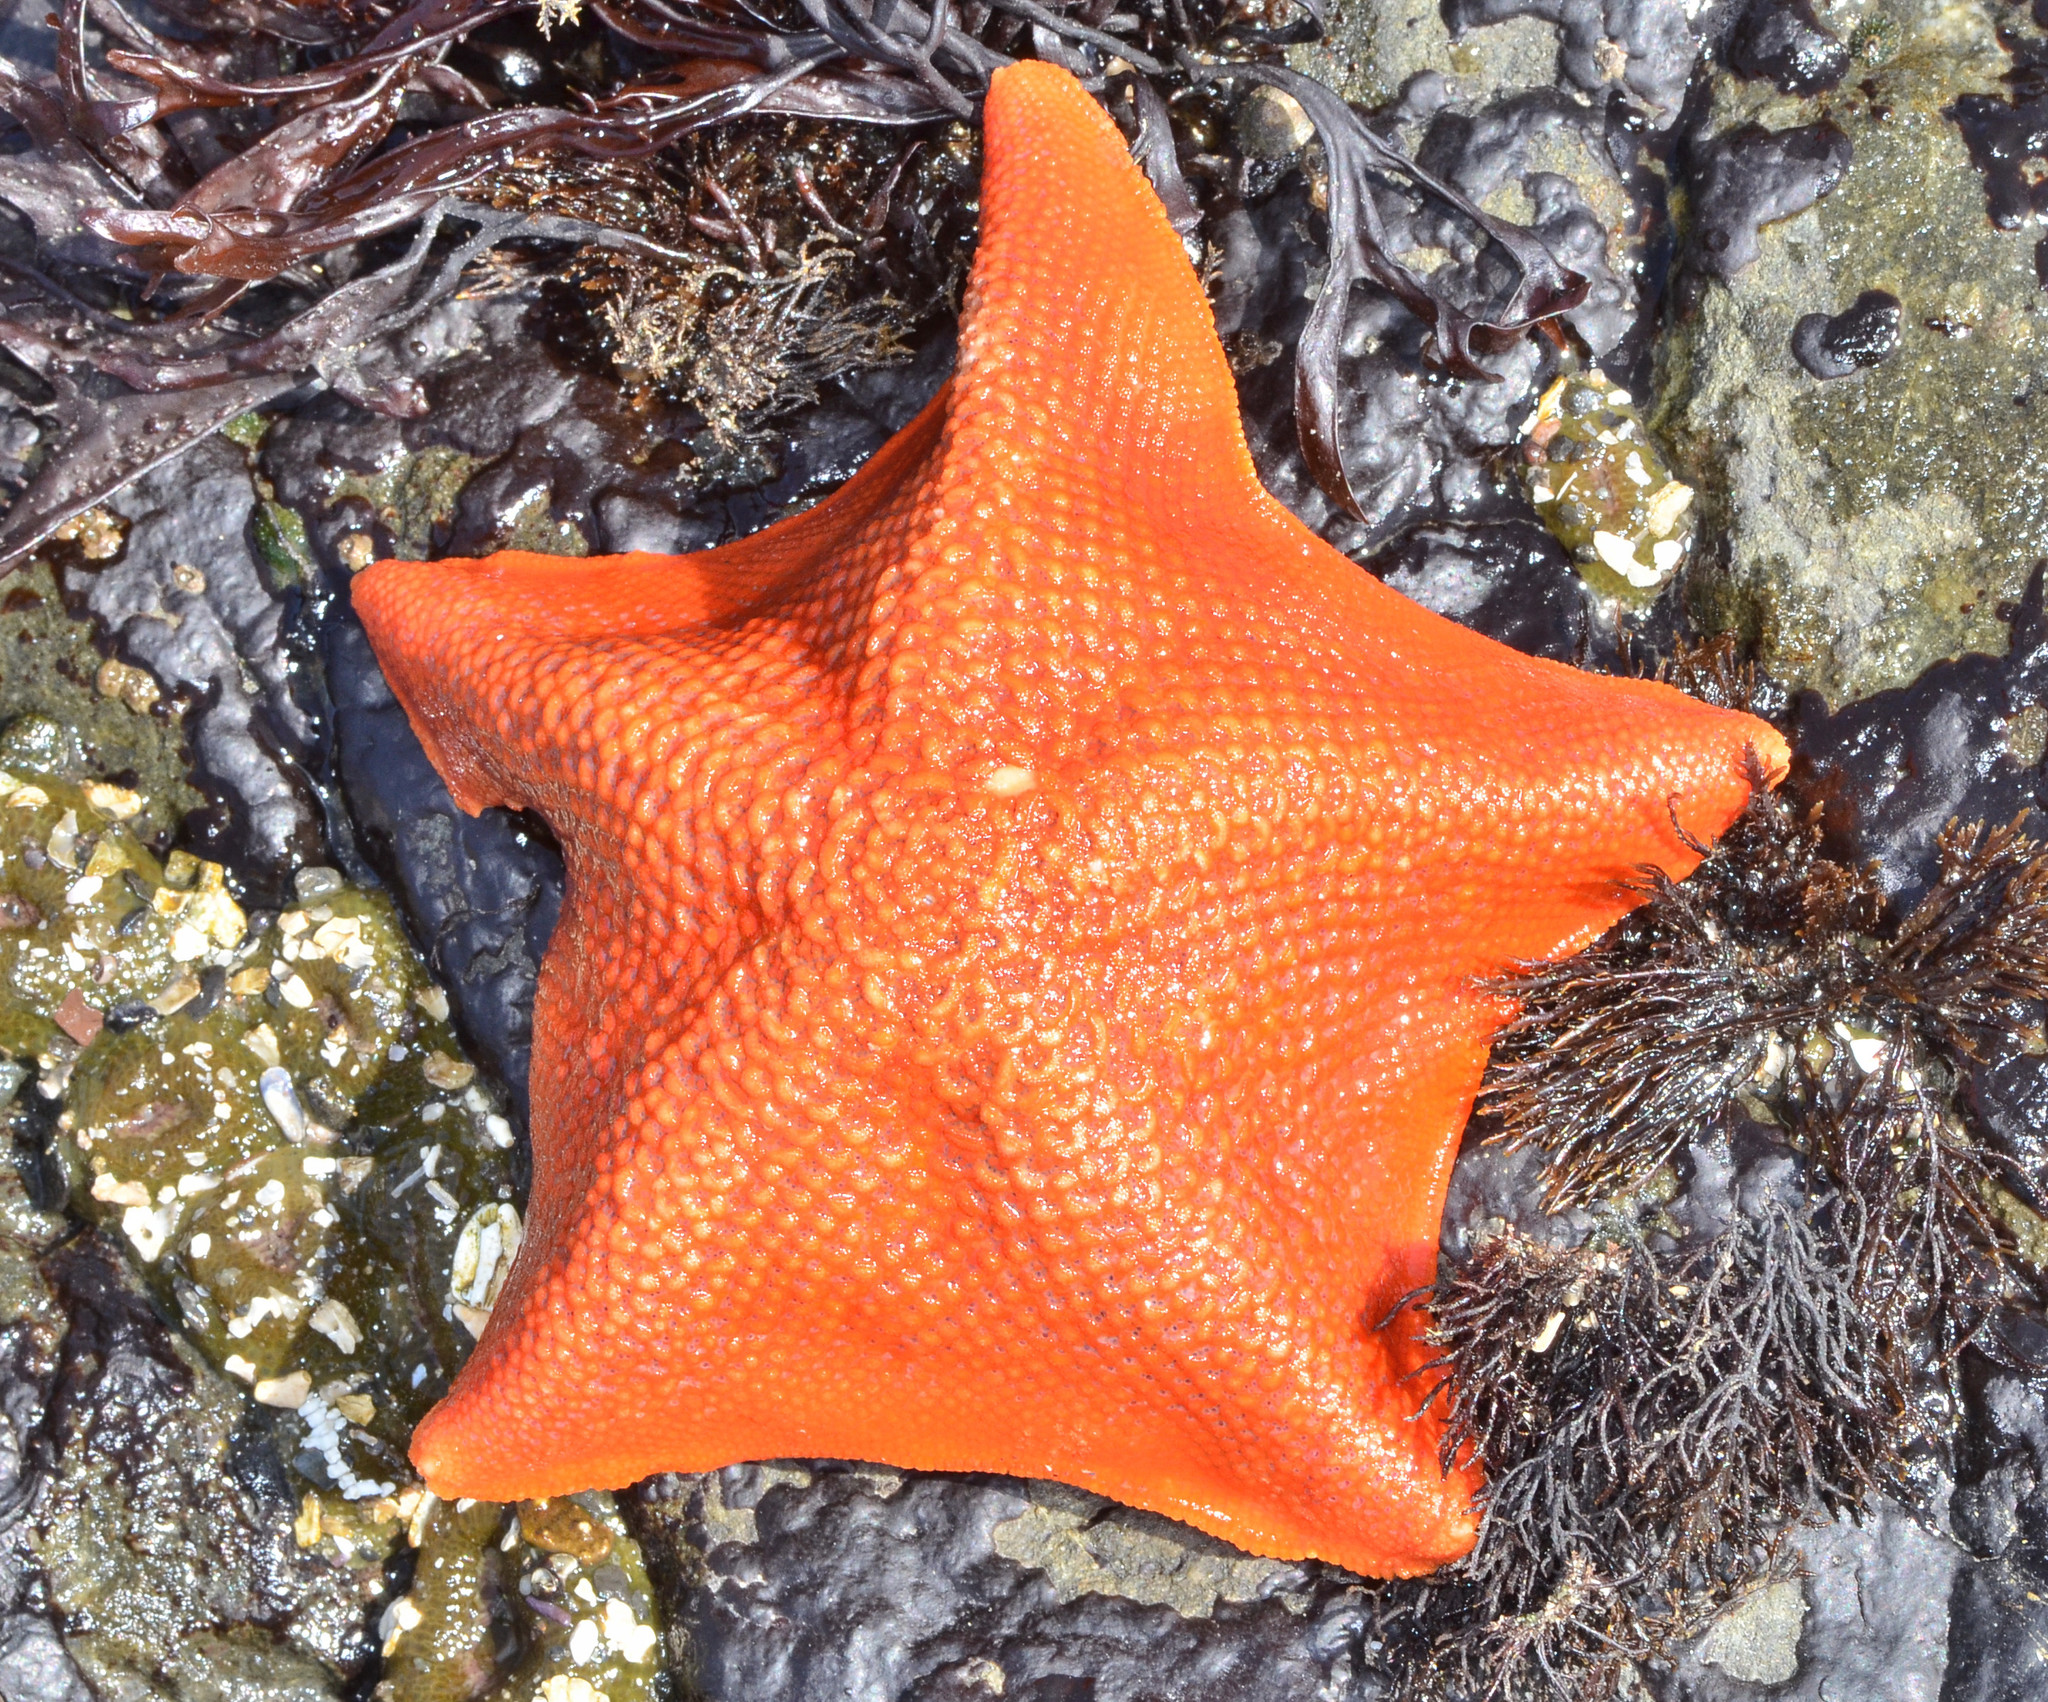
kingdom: Animalia
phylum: Echinodermata
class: Asteroidea
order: Valvatida
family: Asterinidae
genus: Patiria
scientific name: Patiria miniata
